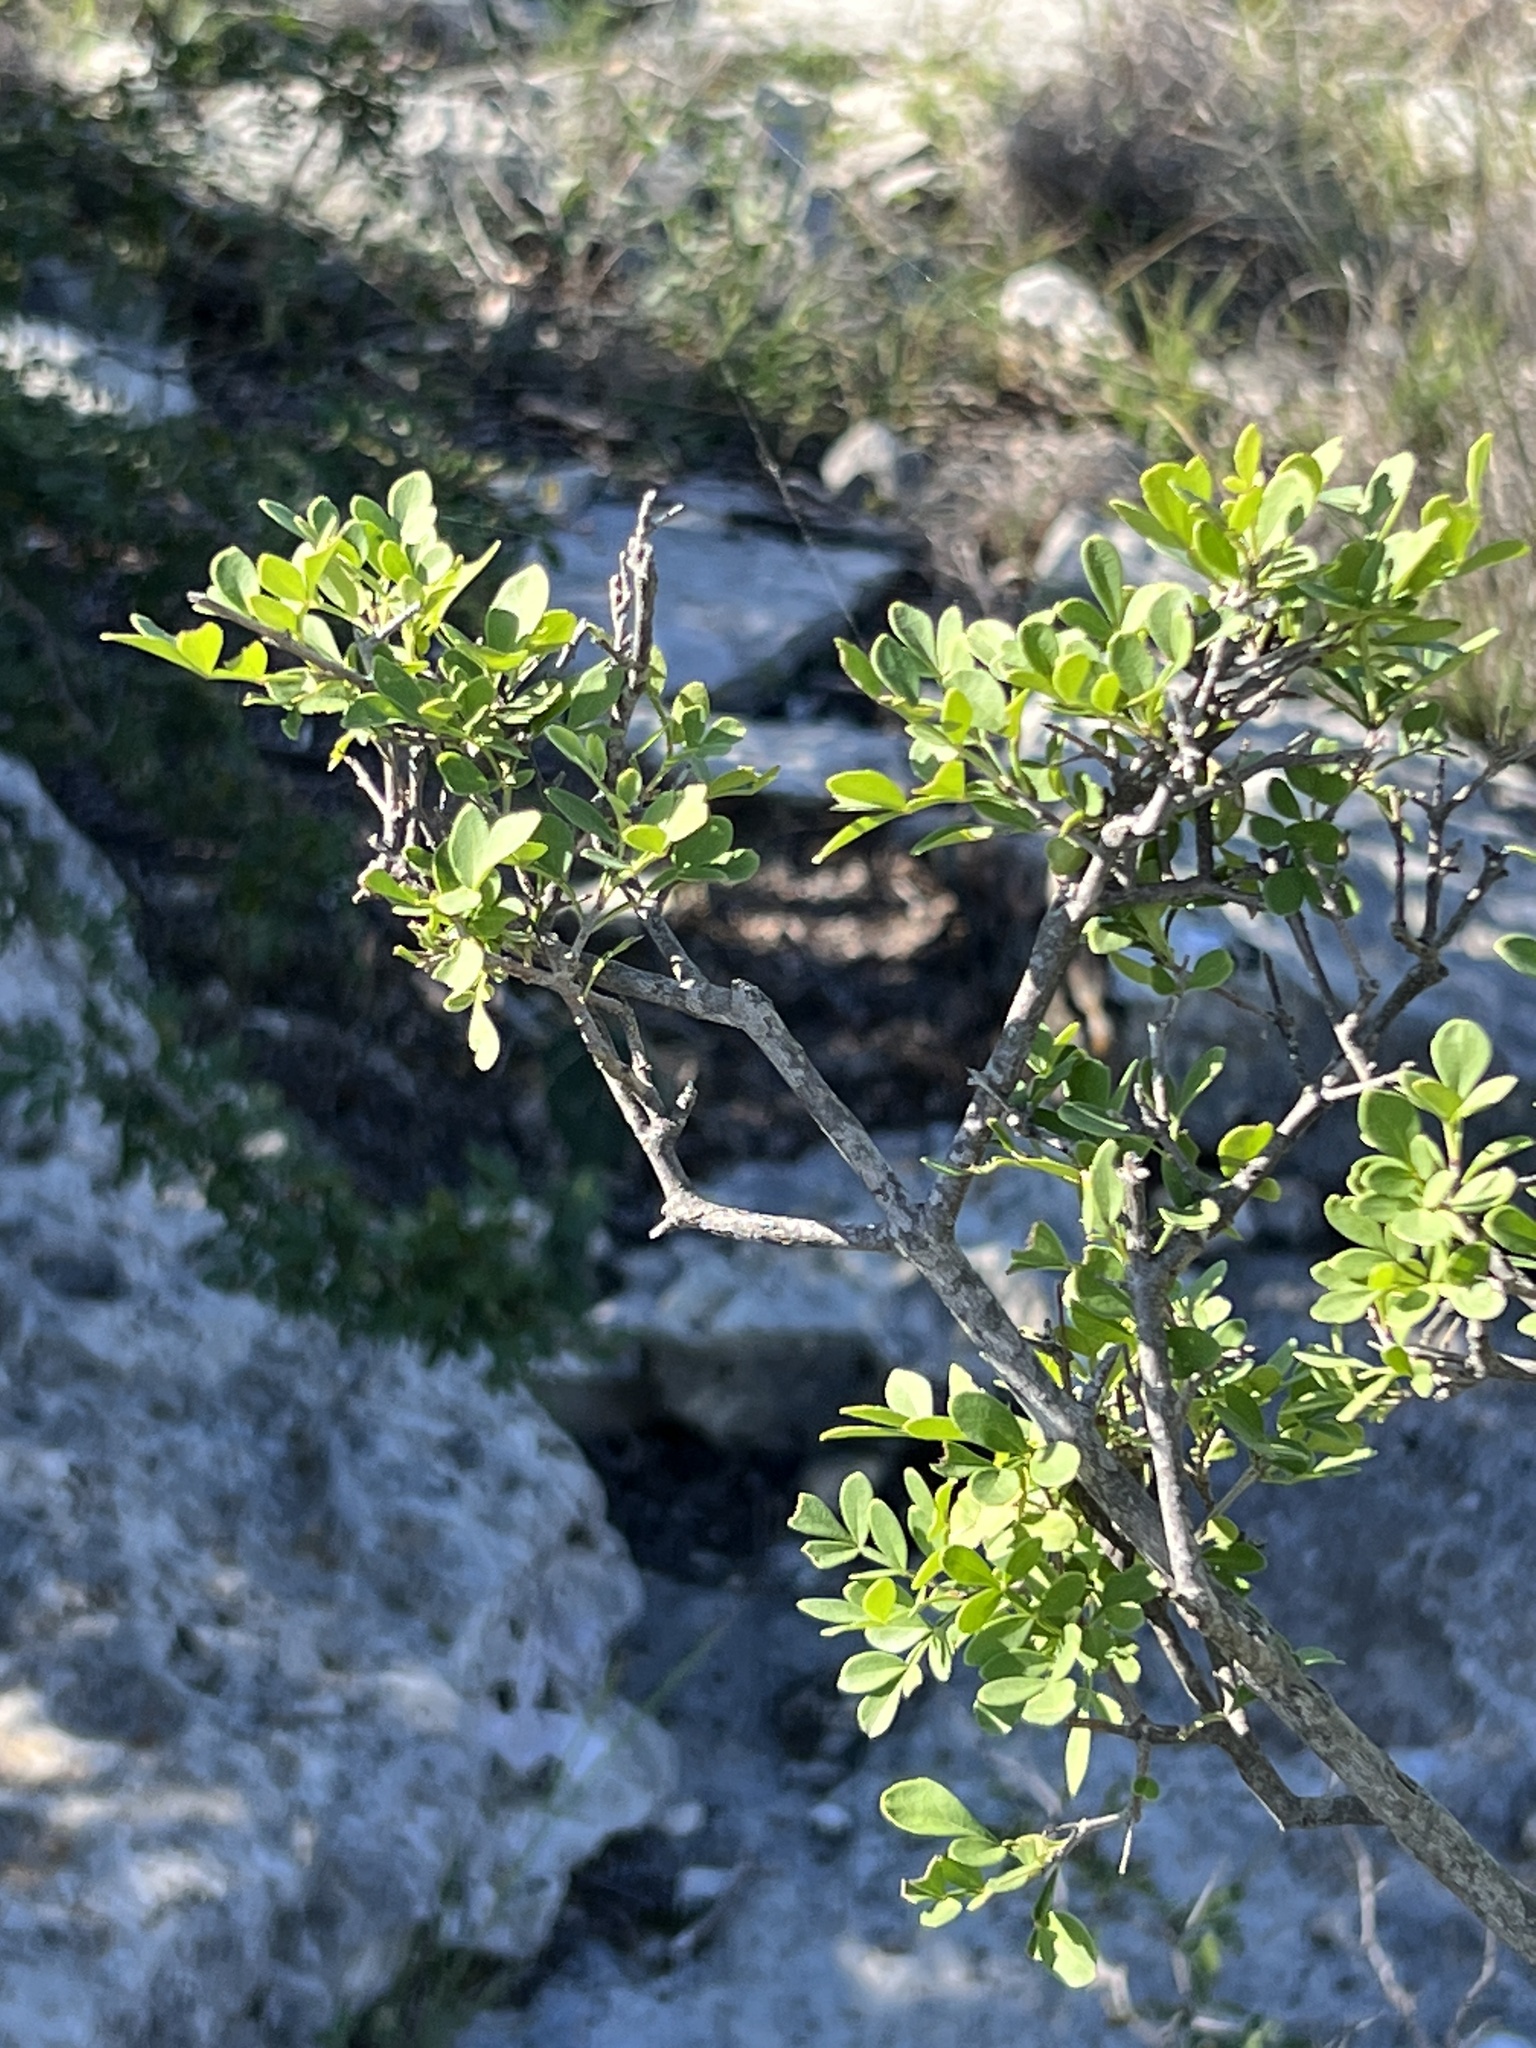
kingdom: Plantae
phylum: Tracheophyta
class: Magnoliopsida
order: Lamiales
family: Oleaceae
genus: Fraxinus
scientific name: Fraxinus greggii
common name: Gregg ash
